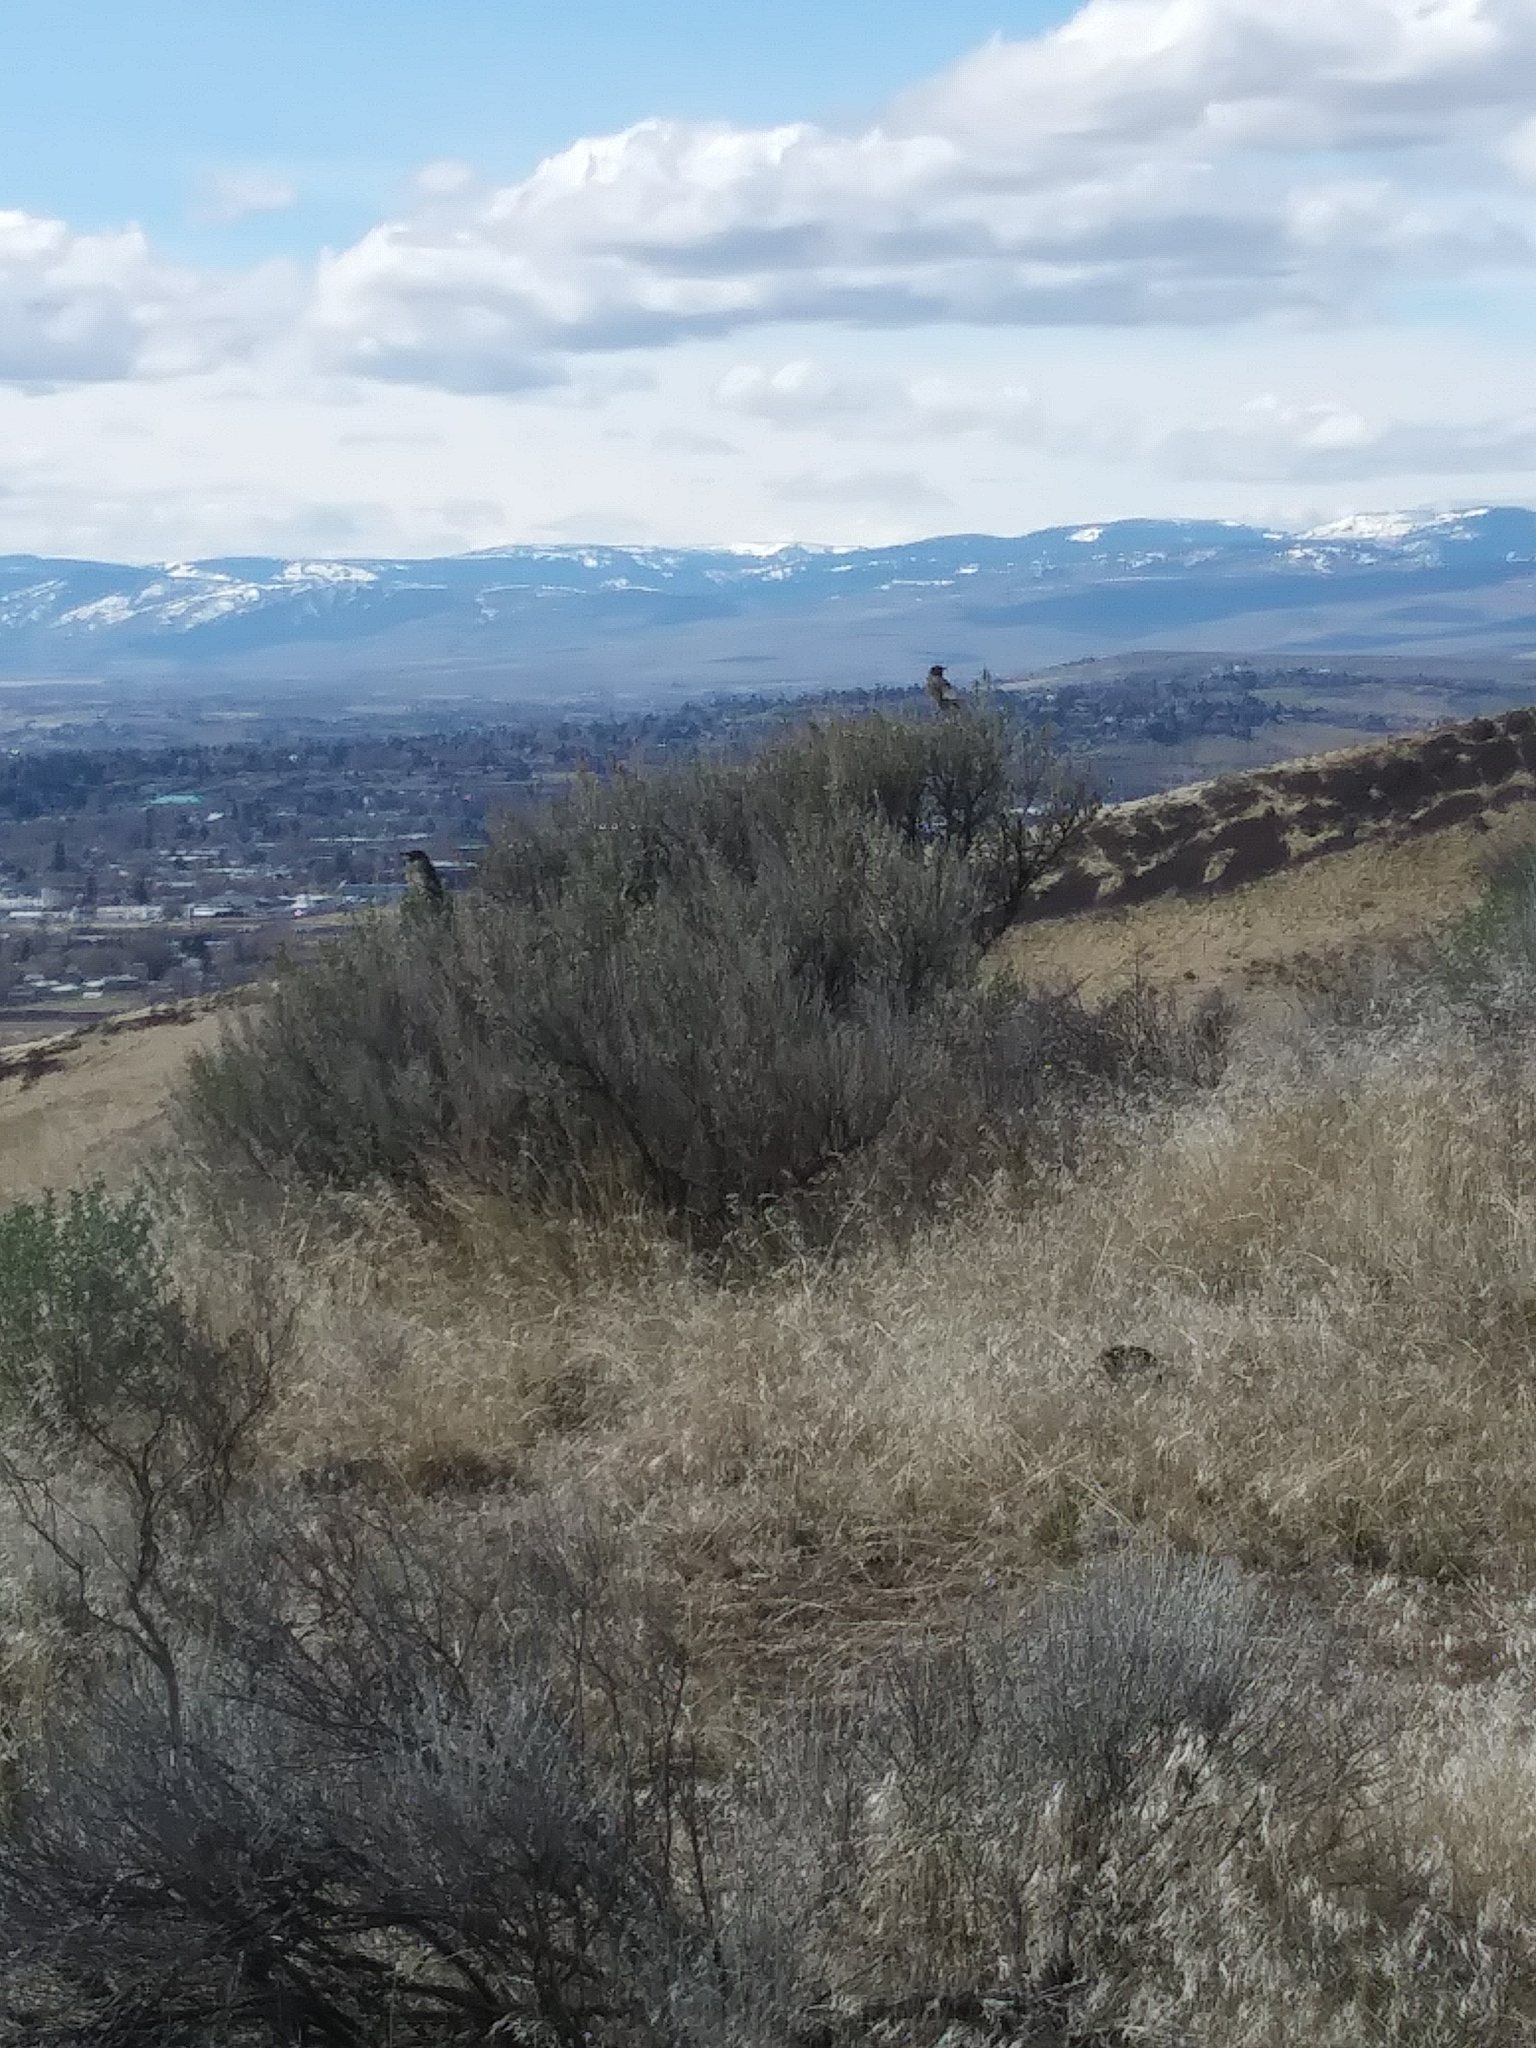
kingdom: Animalia
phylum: Chordata
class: Aves
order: Passeriformes
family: Turdidae
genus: Turdus
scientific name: Turdus migratorius
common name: American robin
